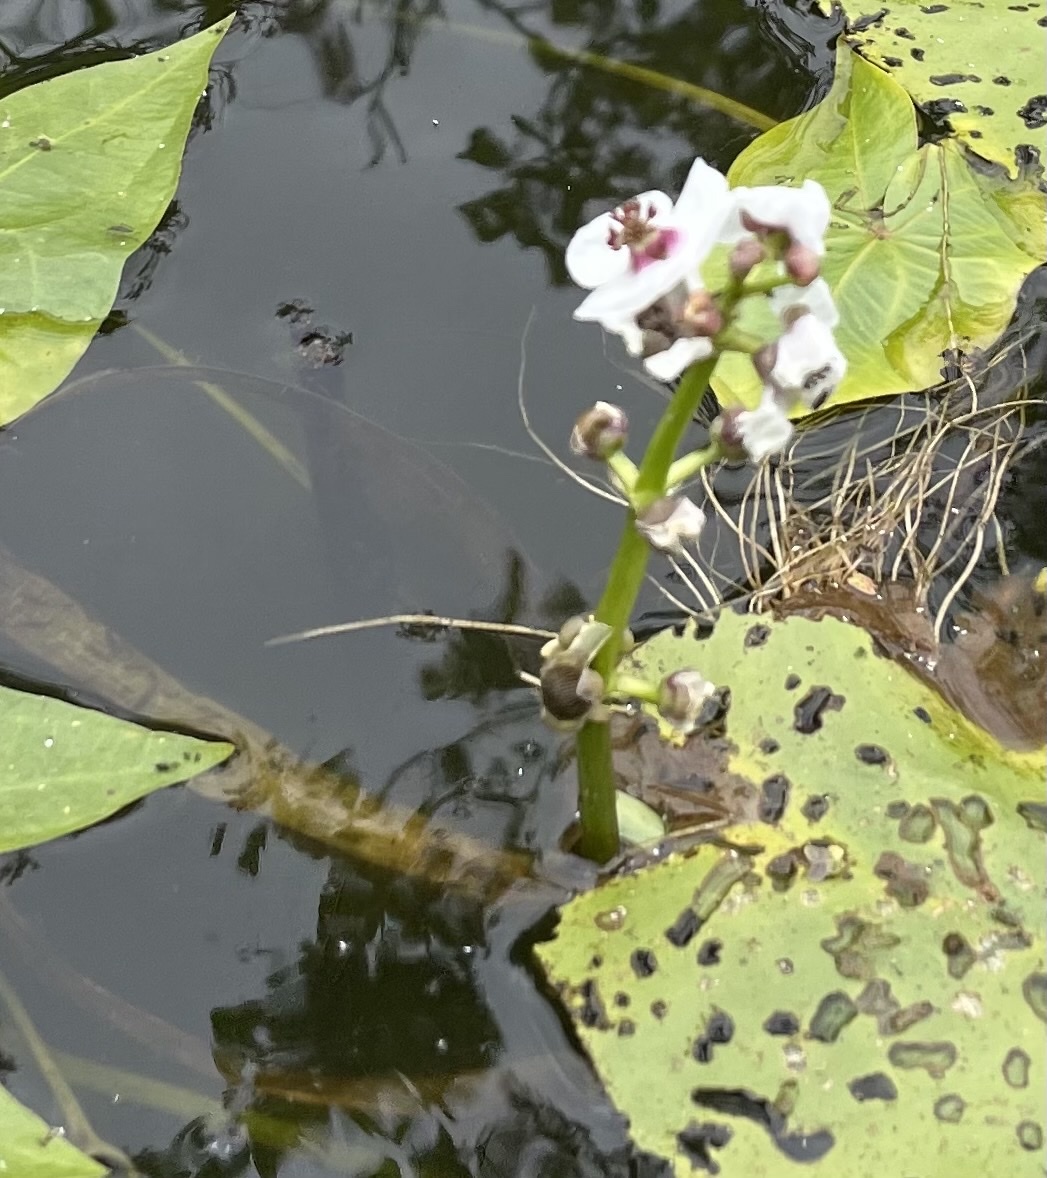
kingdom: Plantae
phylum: Tracheophyta
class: Liliopsida
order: Alismatales
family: Alismataceae
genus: Sagittaria
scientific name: Sagittaria sagittifolia
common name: Arrowhead
